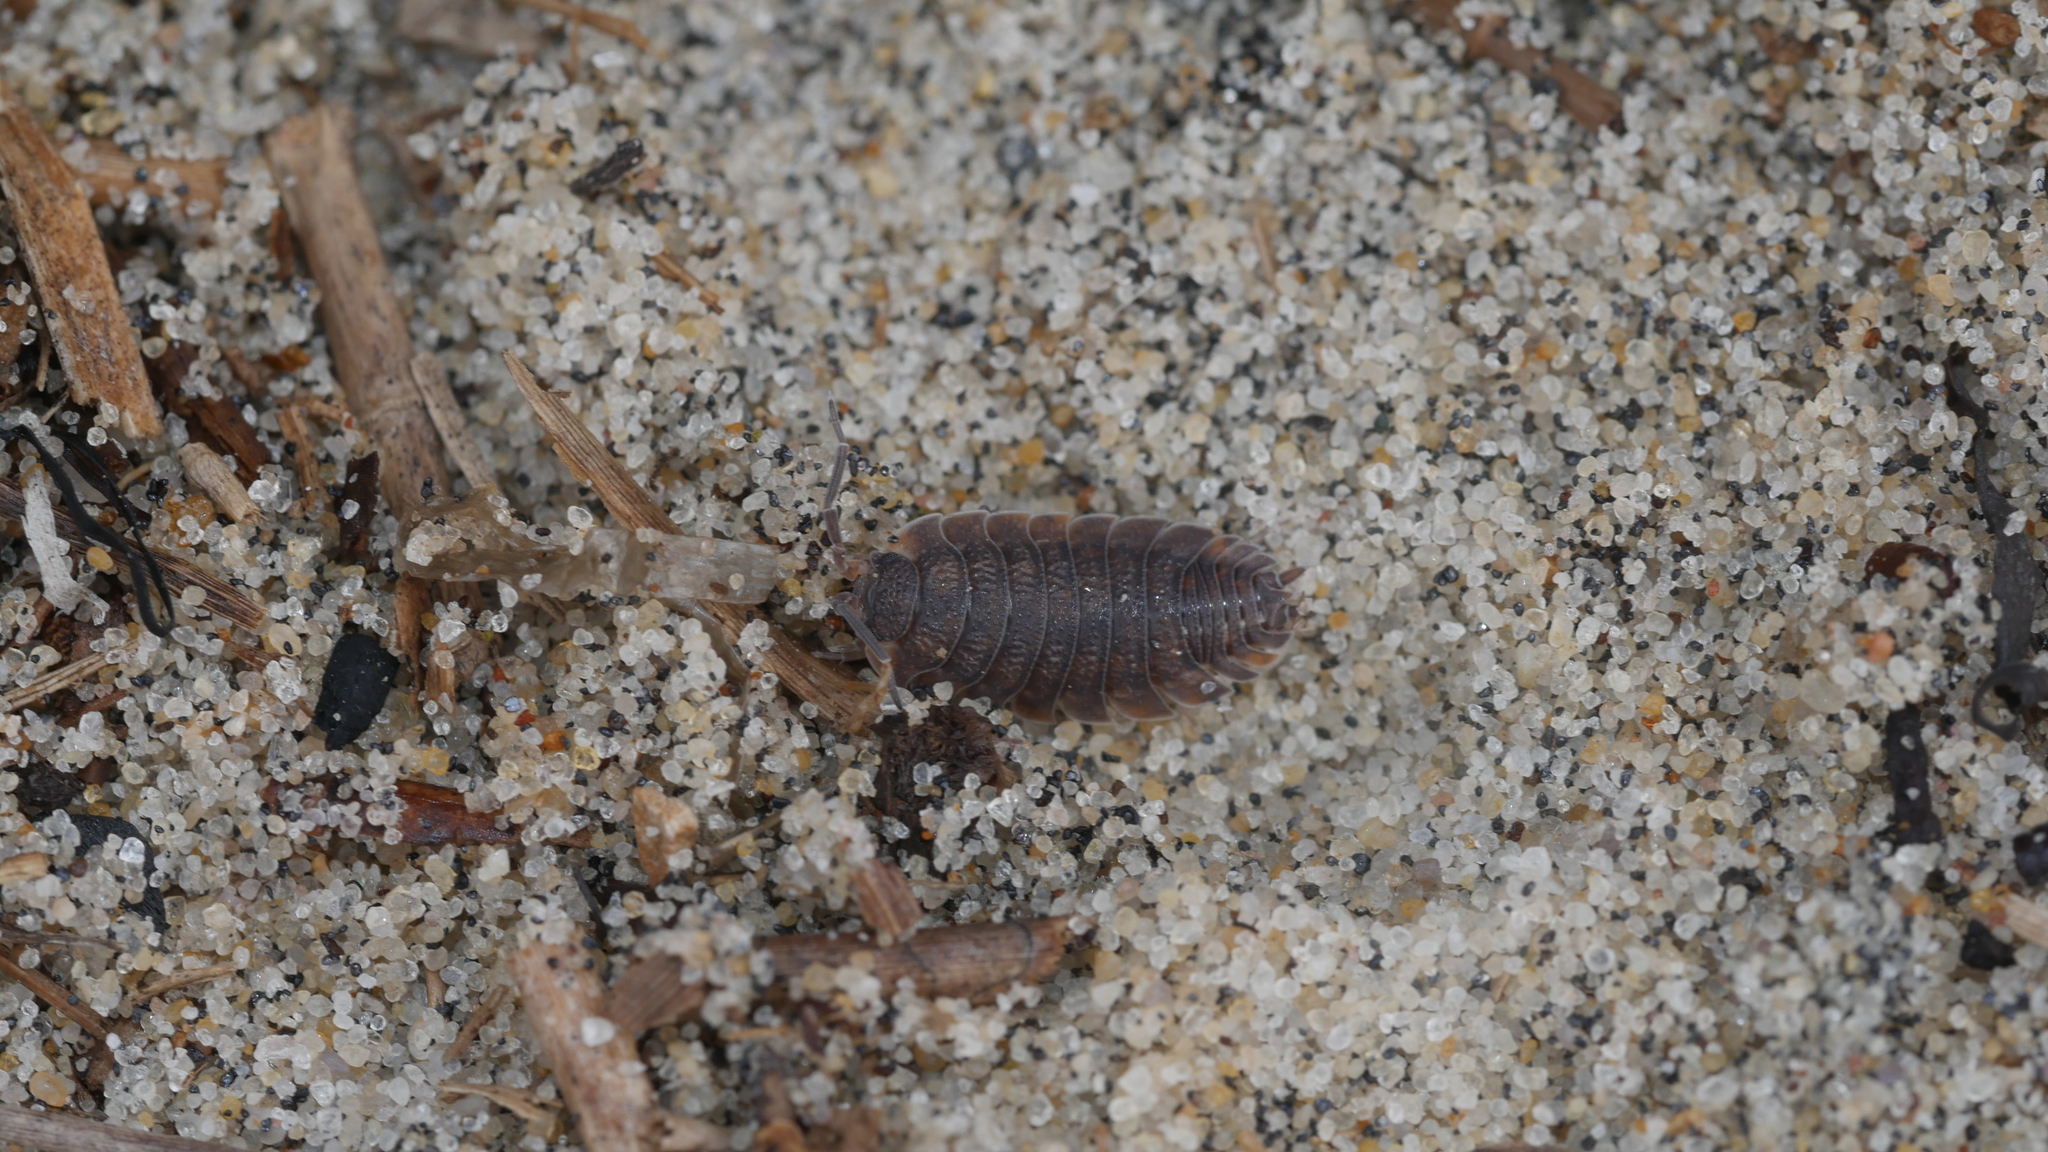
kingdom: Animalia
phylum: Arthropoda
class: Malacostraca
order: Isopoda
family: Porcellionidae
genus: Porcellio
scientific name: Porcellio scaber
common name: Common rough woodlouse
